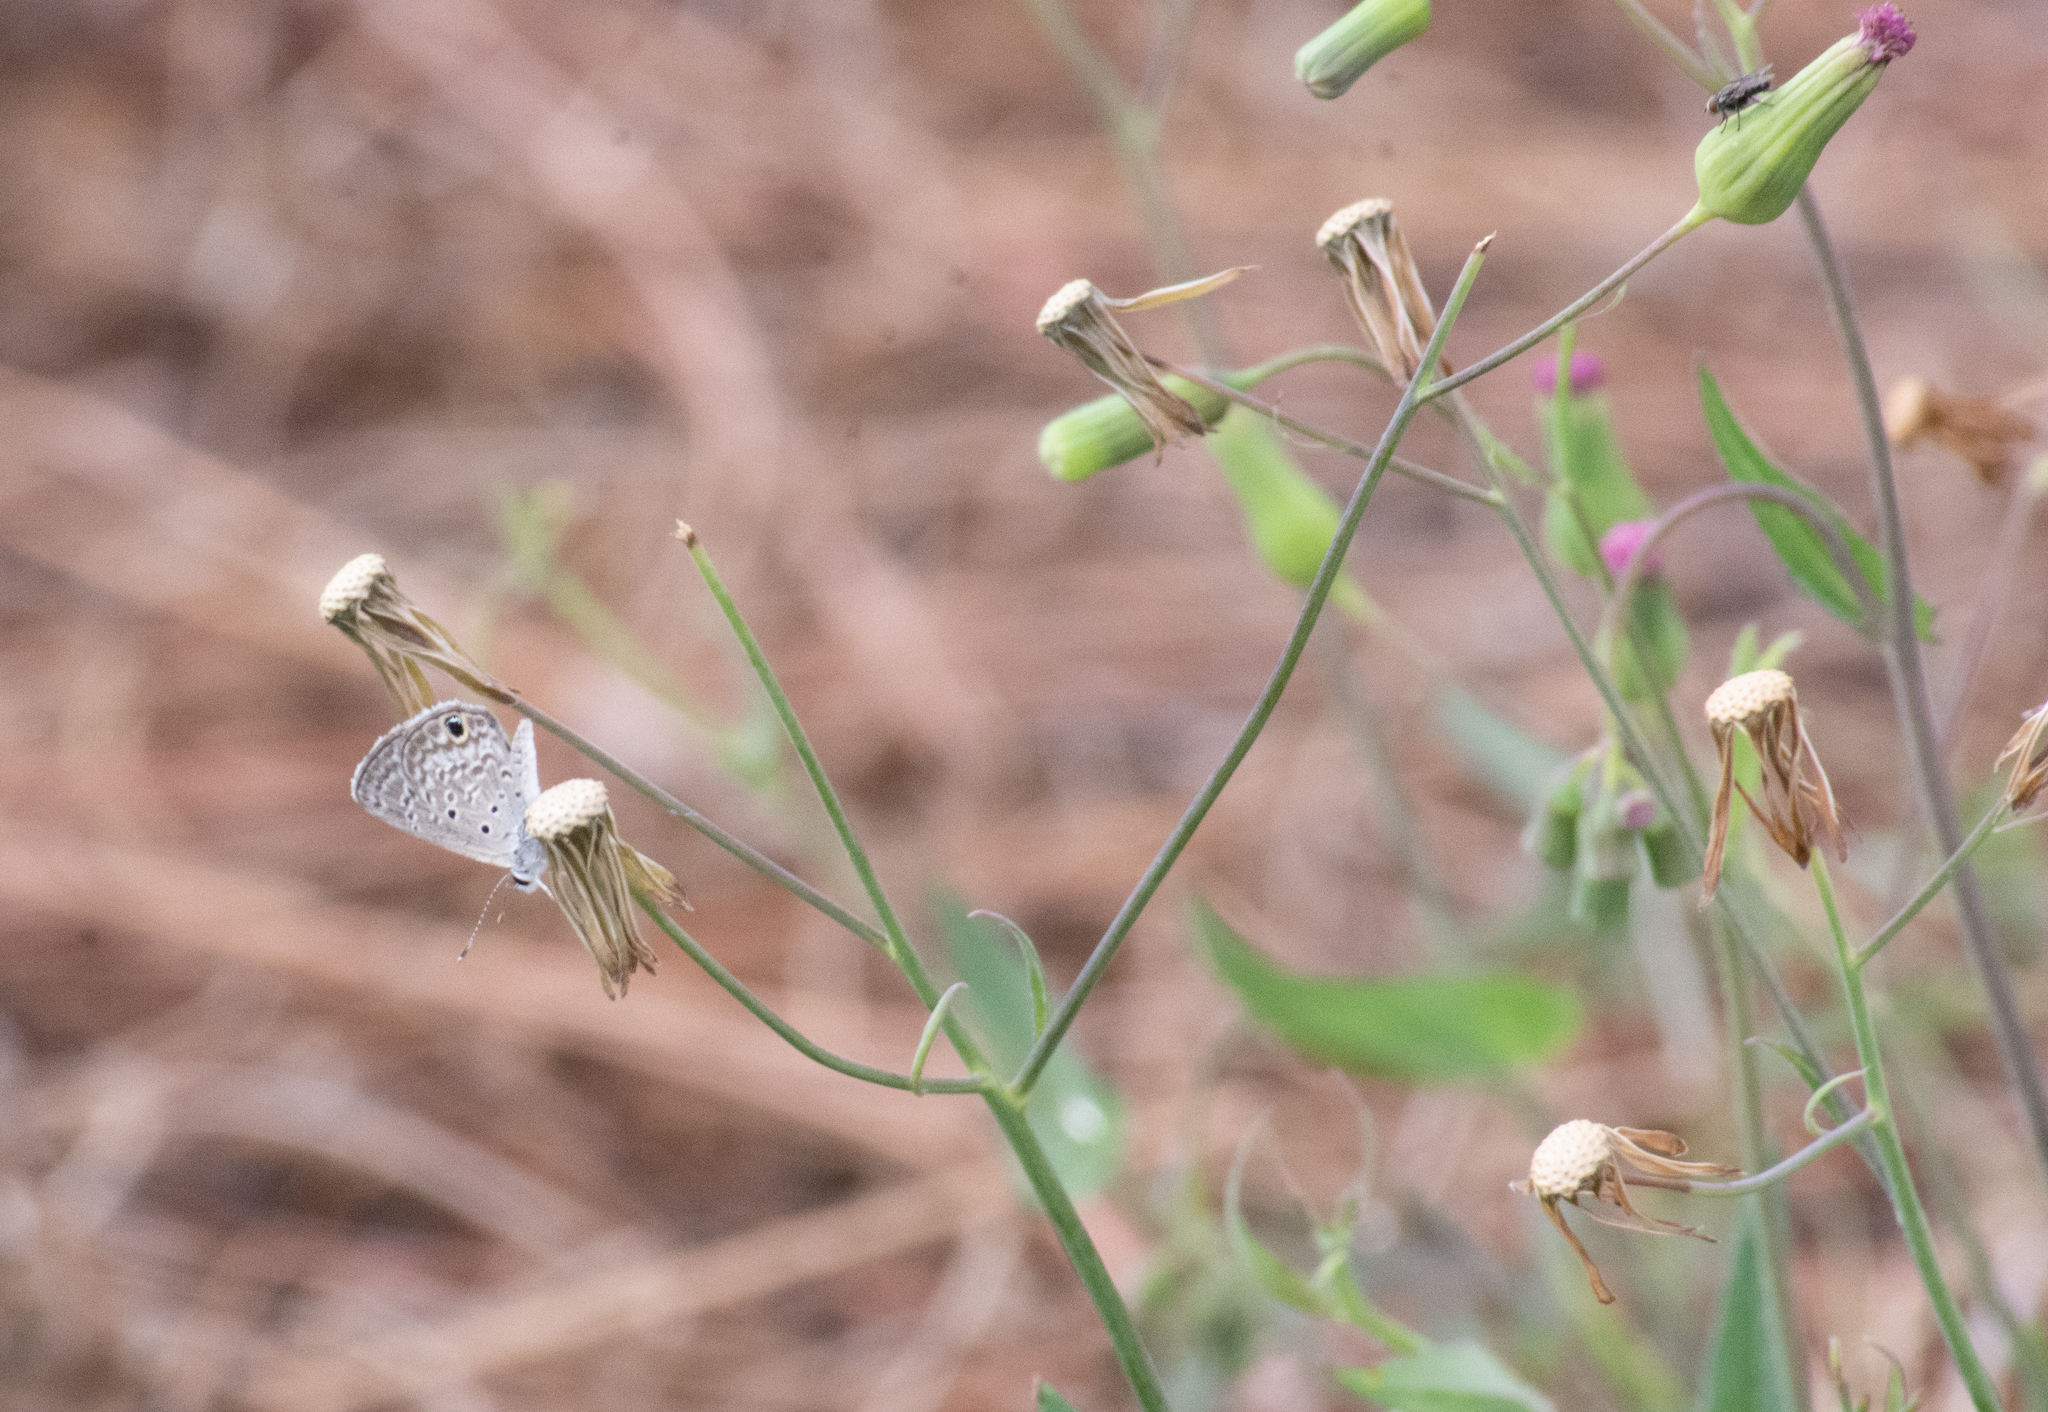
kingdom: Animalia
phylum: Arthropoda
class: Insecta
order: Lepidoptera
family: Lycaenidae
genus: Hemiargus
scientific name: Hemiargus ceraunus
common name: Ceraunus blue
